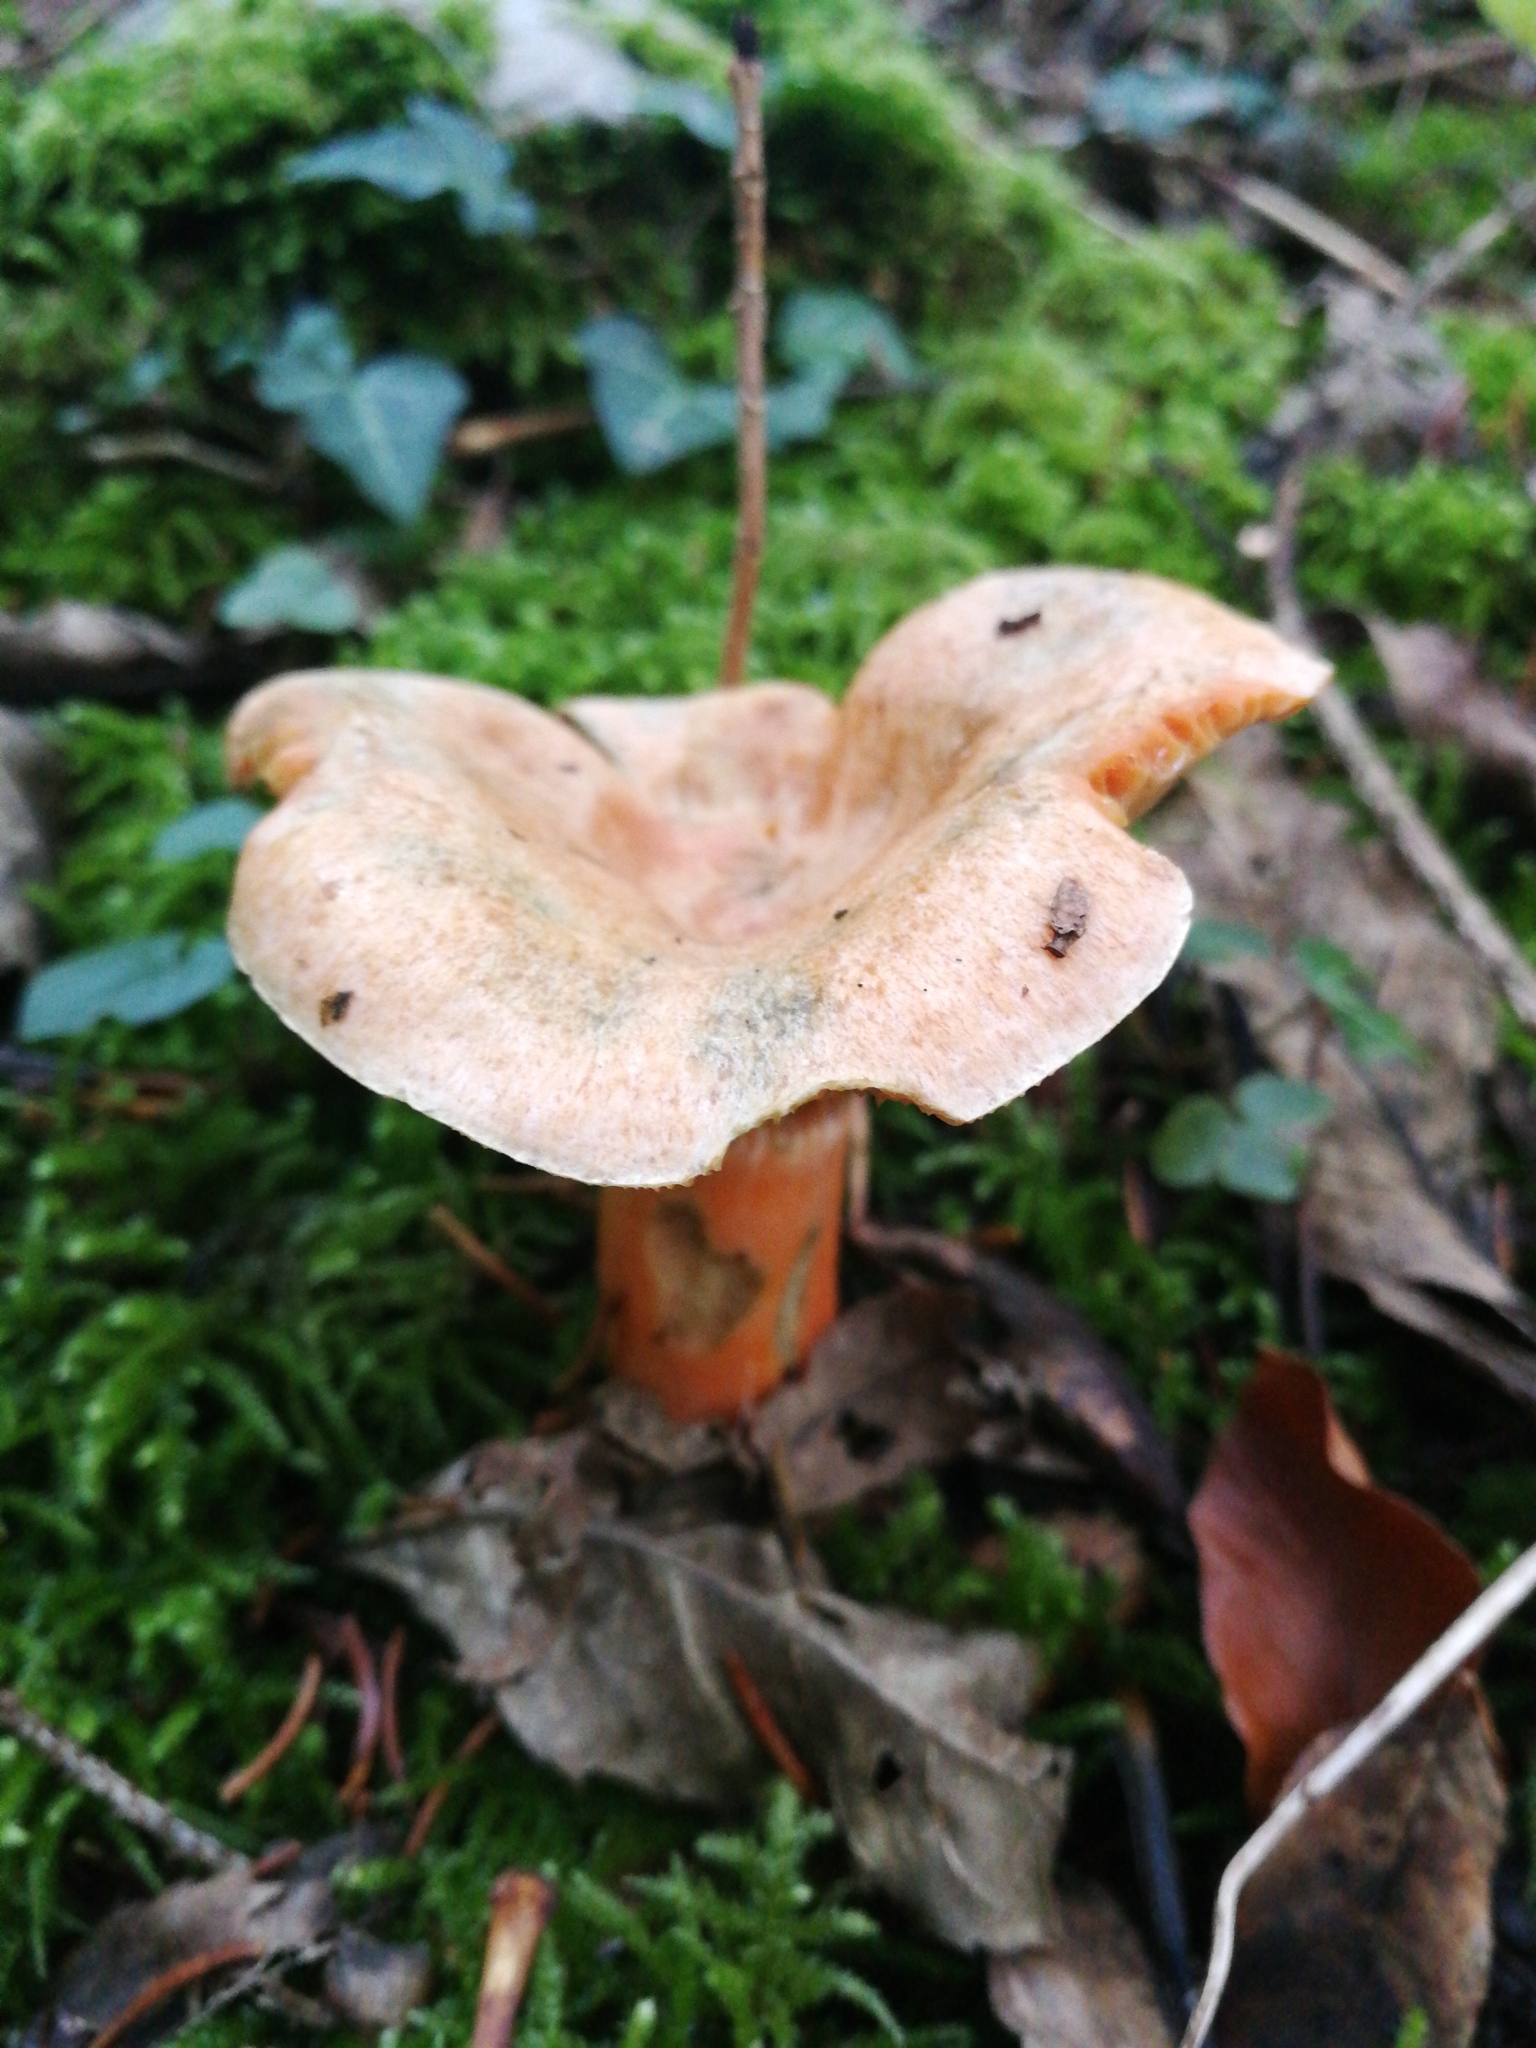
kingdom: Fungi
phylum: Basidiomycota
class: Agaricomycetes
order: Russulales
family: Russulaceae
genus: Lactarius
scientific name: Lactarius deterrimus
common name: False saffron milkcap
